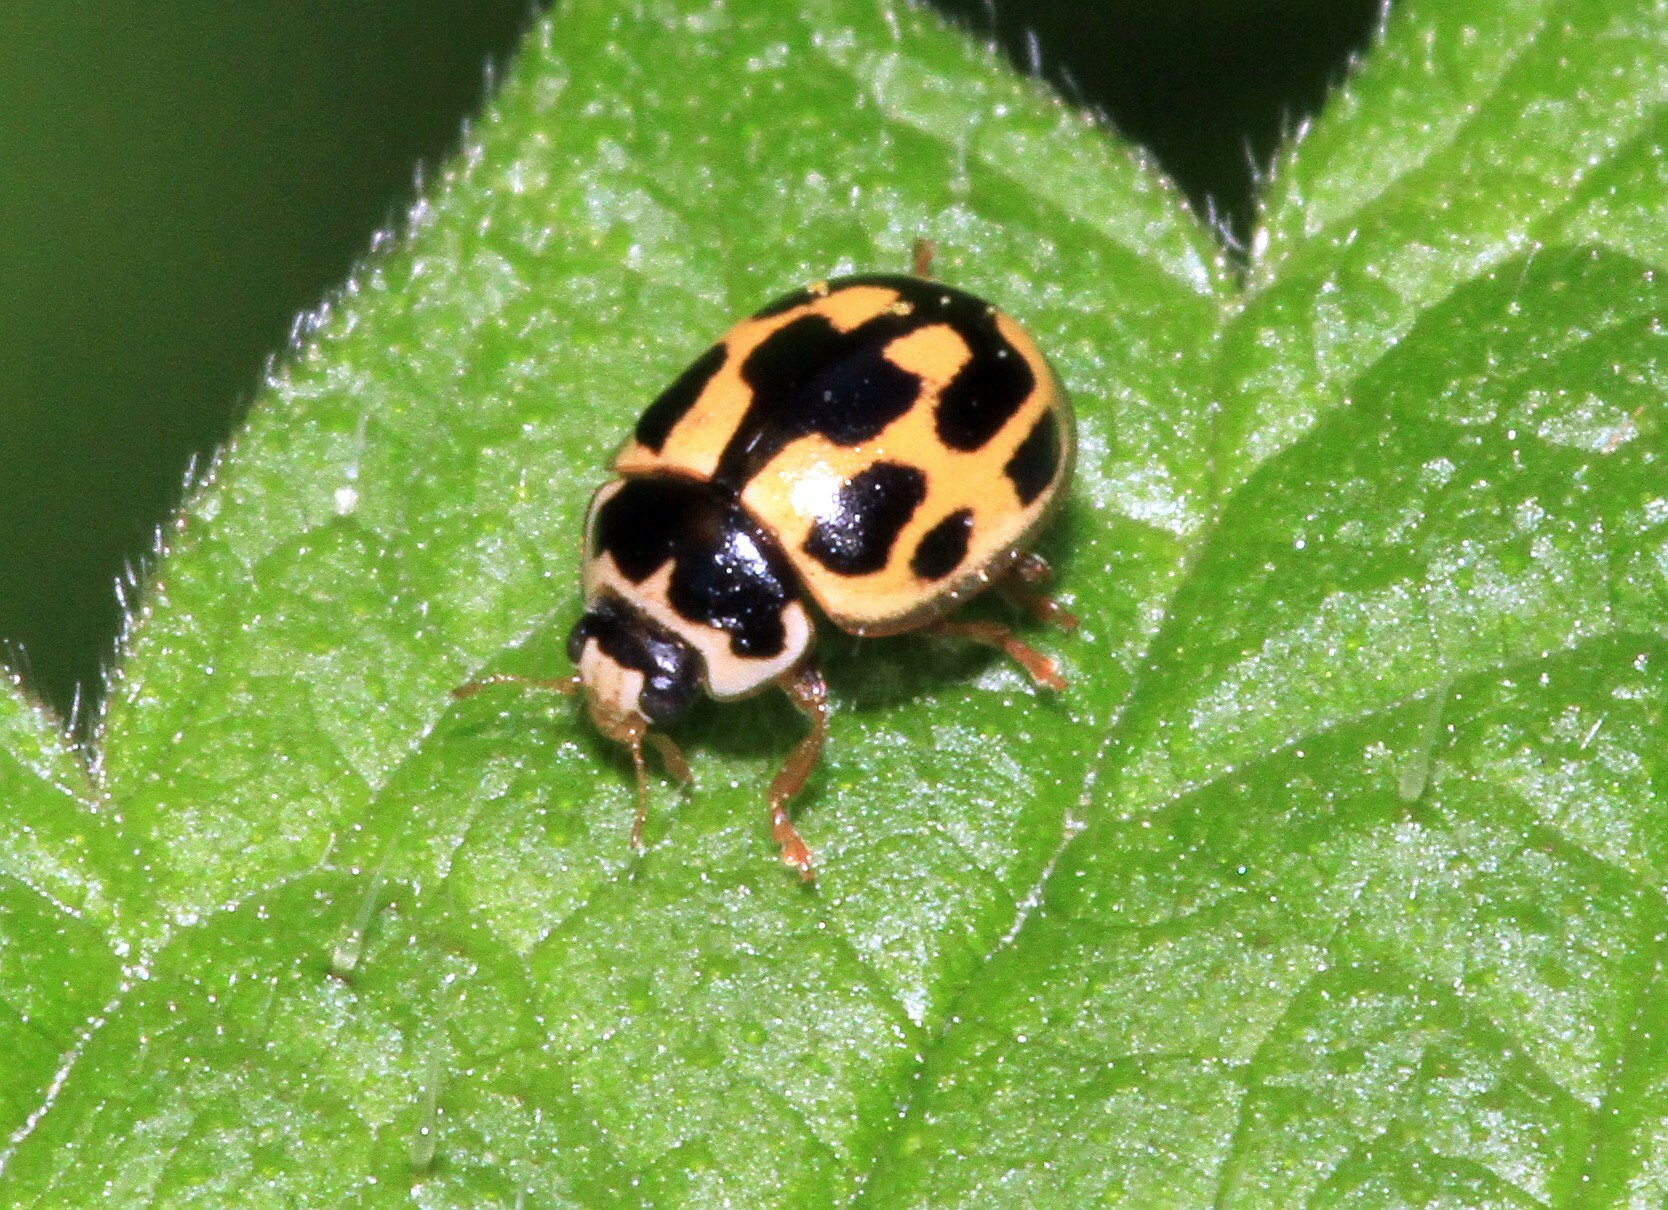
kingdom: Animalia
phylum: Arthropoda
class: Insecta
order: Coleoptera
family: Coccinellidae
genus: Propylaea
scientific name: Propylaea quatuordecimpunctata
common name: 14-spotted ladybird beetle
